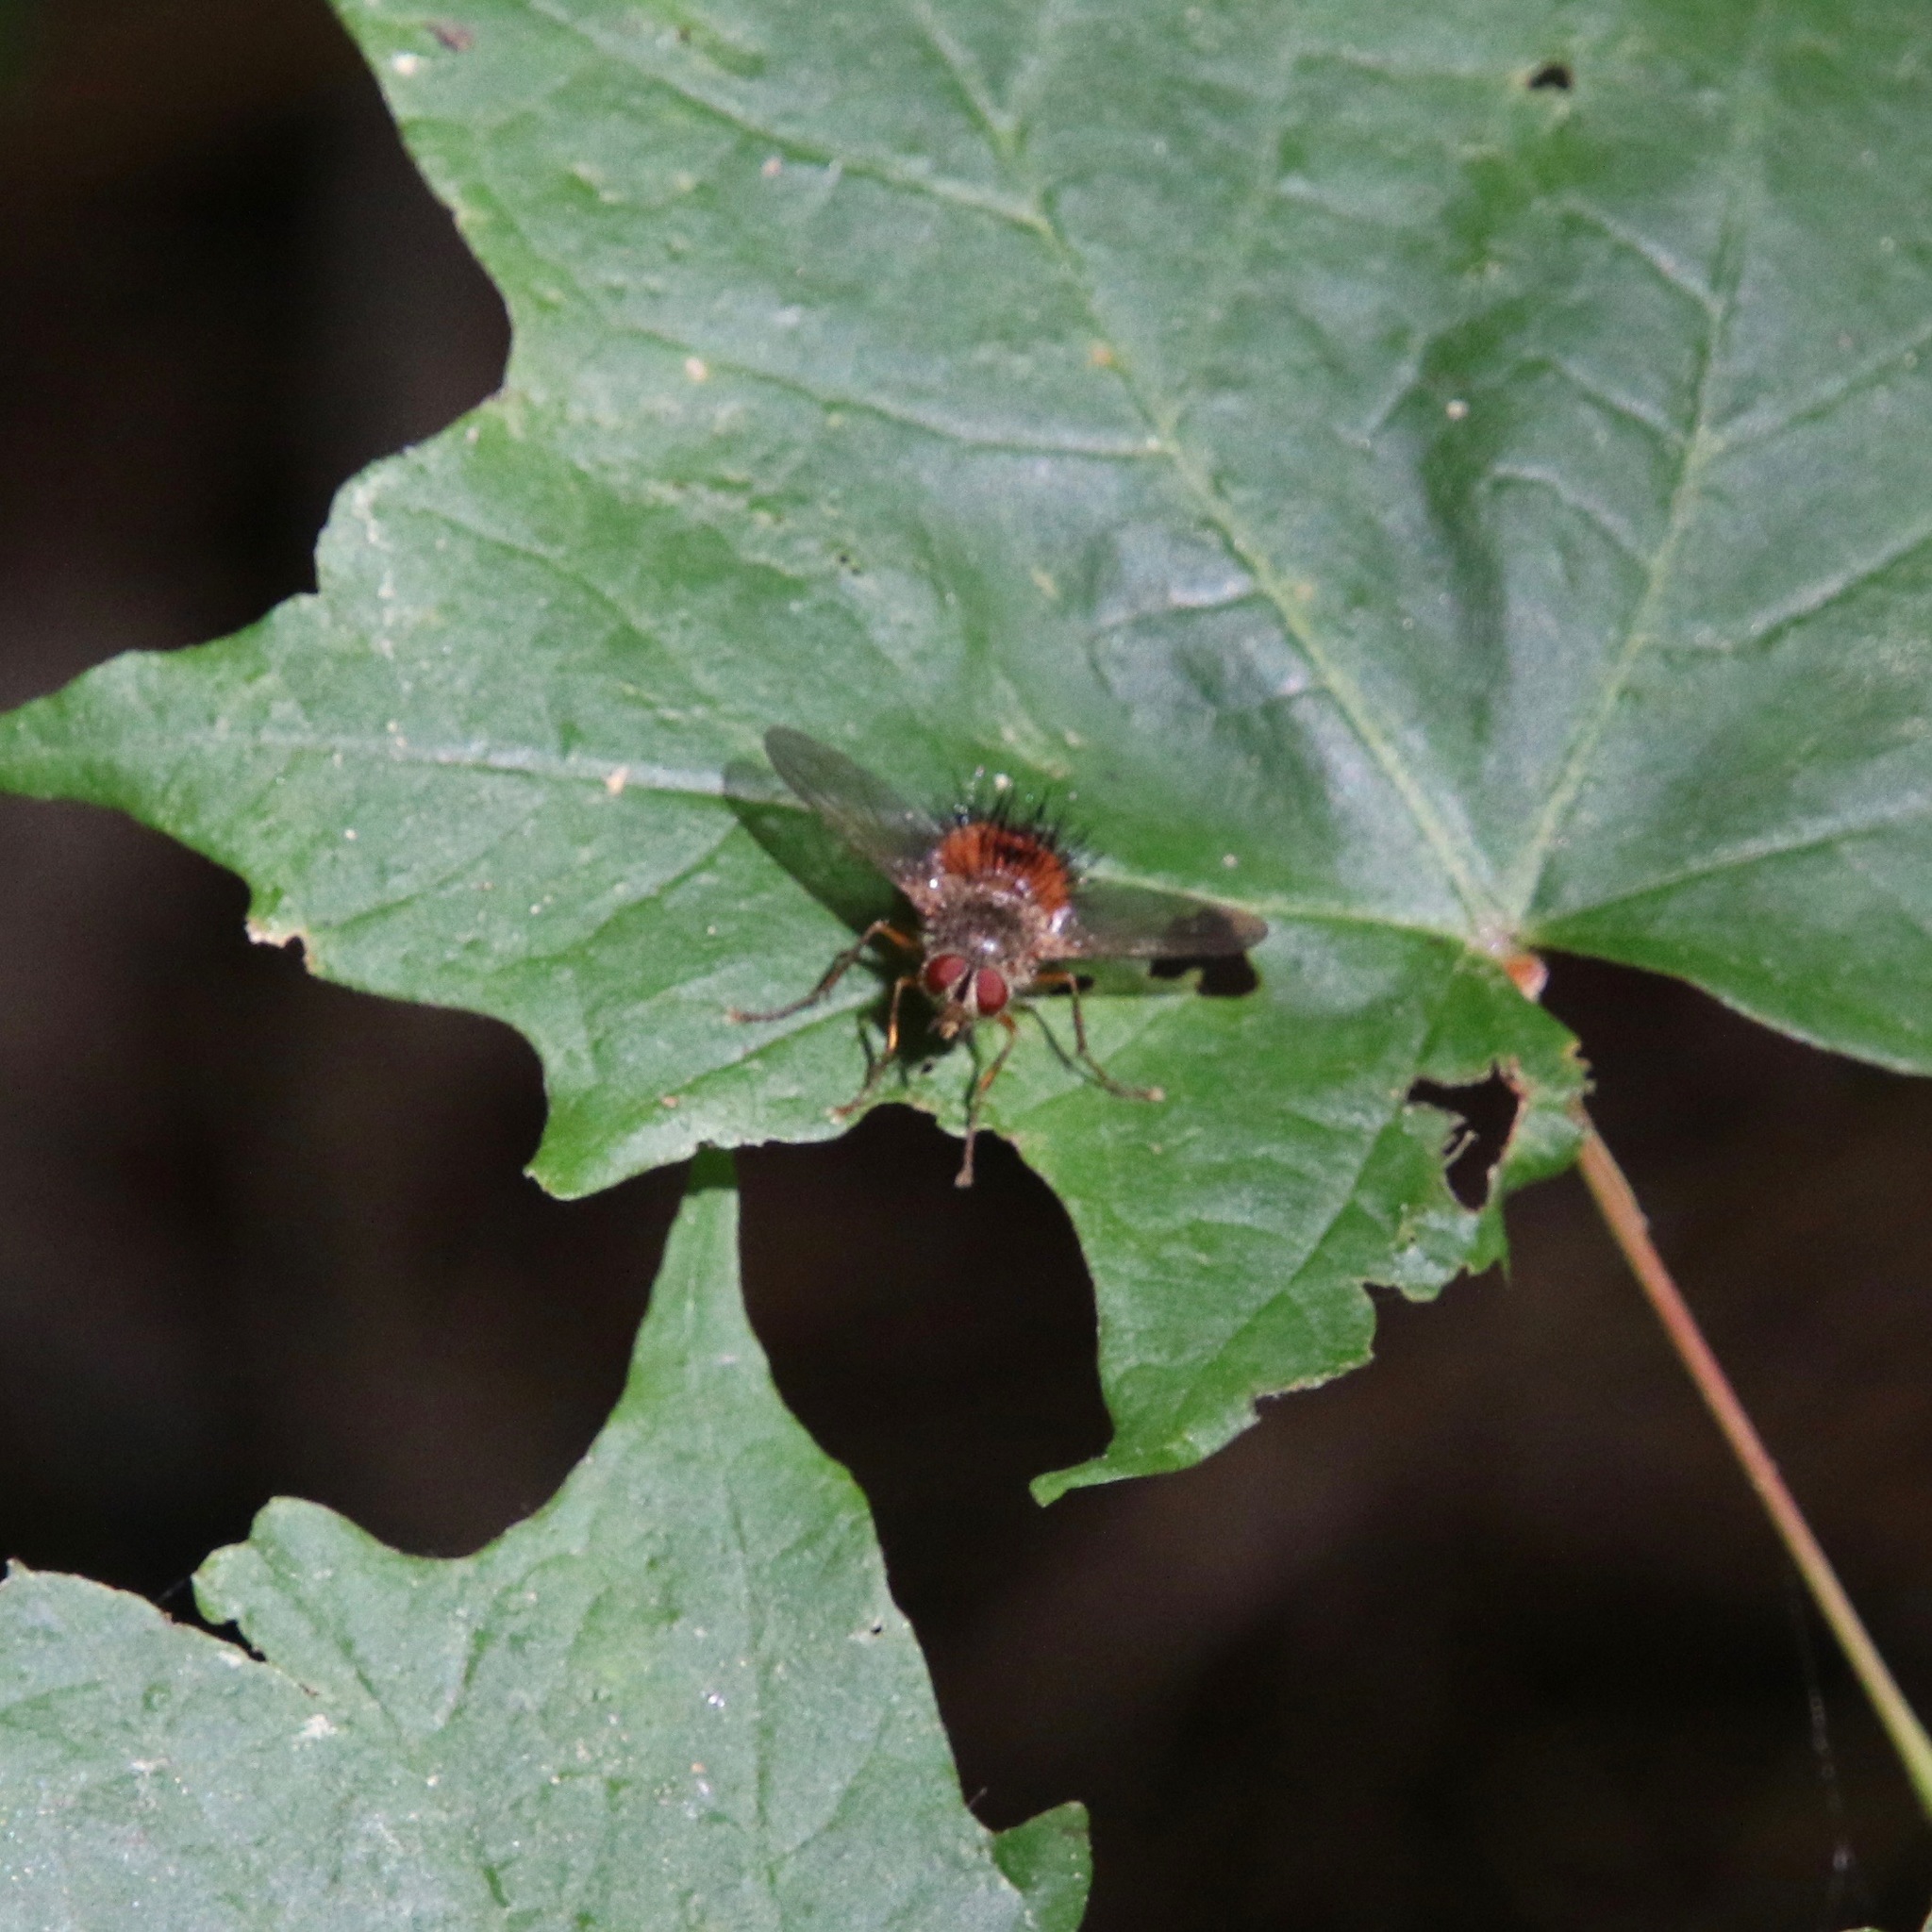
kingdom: Animalia
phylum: Arthropoda
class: Insecta
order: Diptera
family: Tachinidae
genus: Hystricia
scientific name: Hystricia abrupta
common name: Tomato bristle fly
